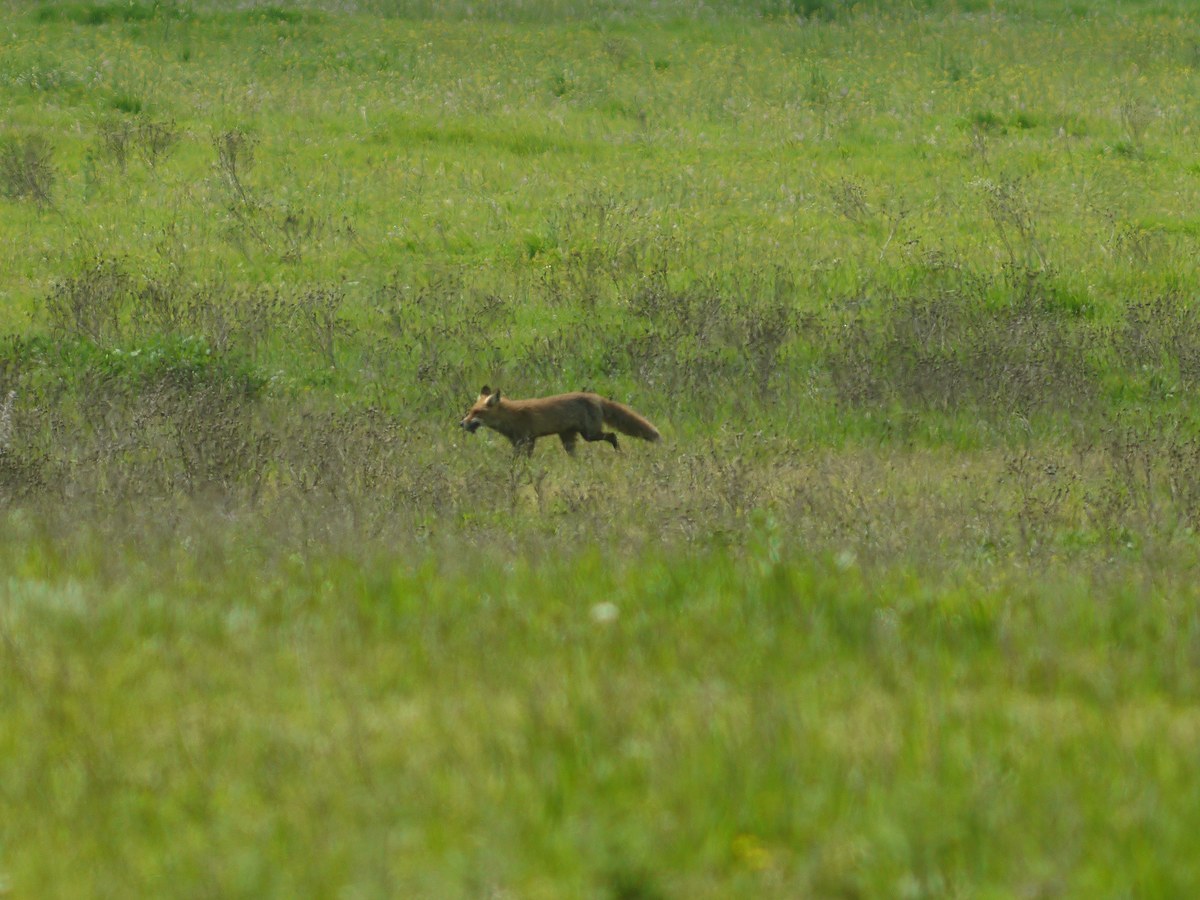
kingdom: Animalia
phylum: Chordata
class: Mammalia
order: Carnivora
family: Canidae
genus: Vulpes
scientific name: Vulpes vulpes
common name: Red fox
